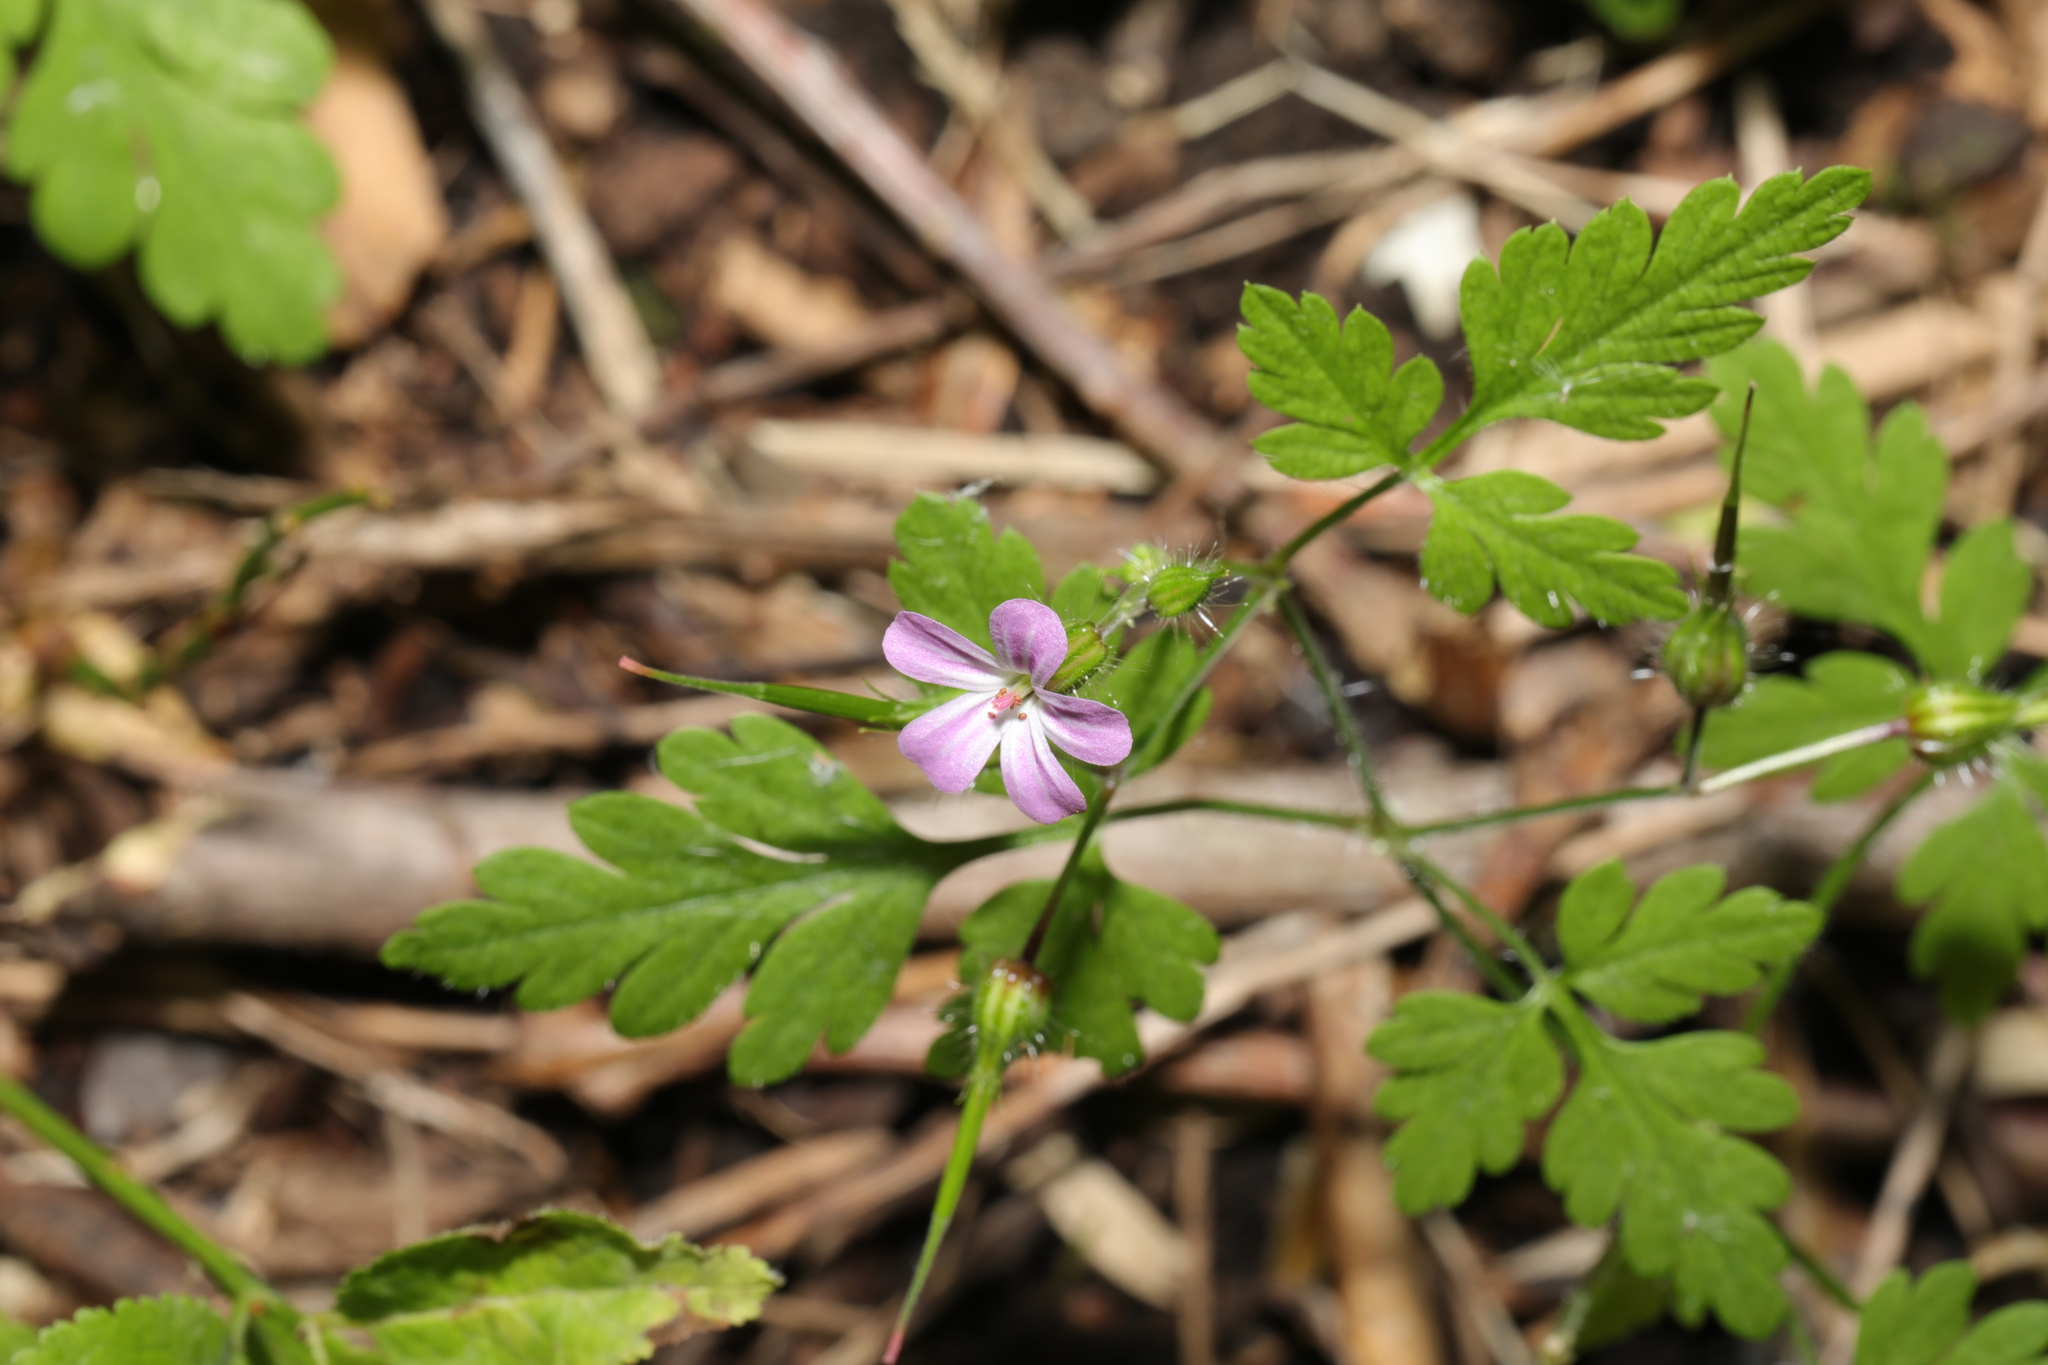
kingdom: Plantae
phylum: Tracheophyta
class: Magnoliopsida
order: Geraniales
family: Geraniaceae
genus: Geranium
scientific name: Geranium robertianum
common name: Herb-robert
